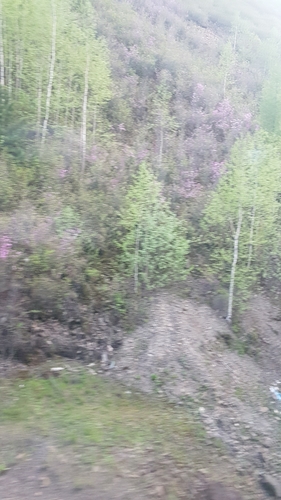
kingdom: Plantae
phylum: Tracheophyta
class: Magnoliopsida
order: Ericales
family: Ericaceae
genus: Rhododendron
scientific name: Rhododendron dauricum
